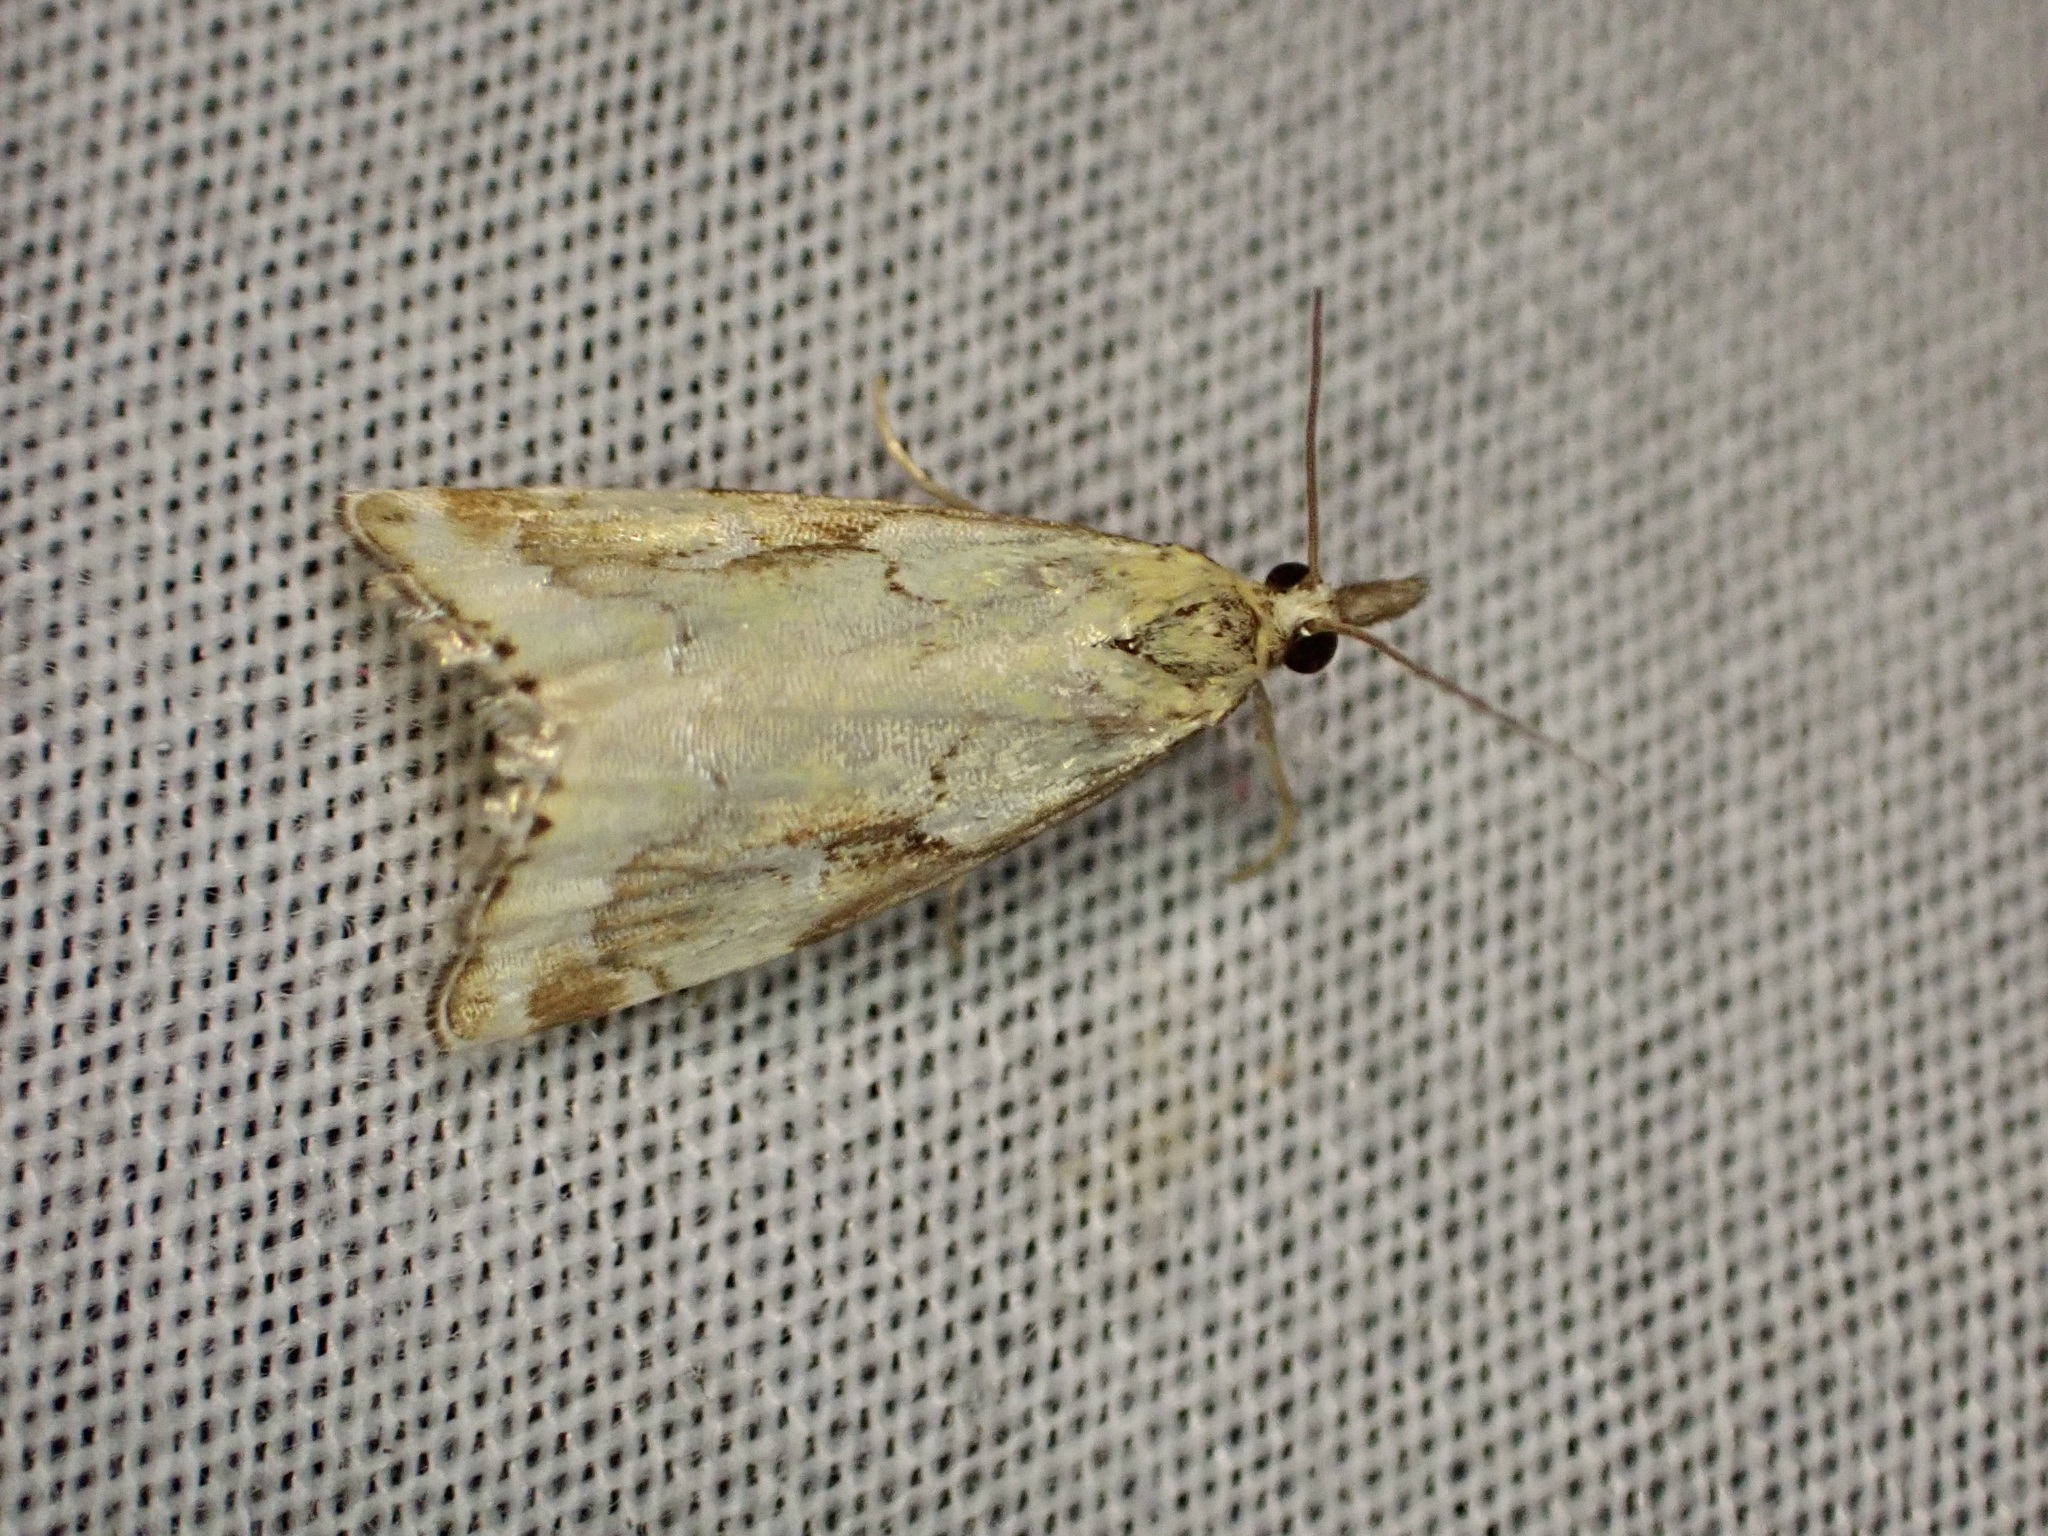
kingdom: Animalia
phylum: Arthropoda
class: Insecta
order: Lepidoptera
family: Crambidae
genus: Glaucocharis
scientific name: Glaucocharis lepidella
